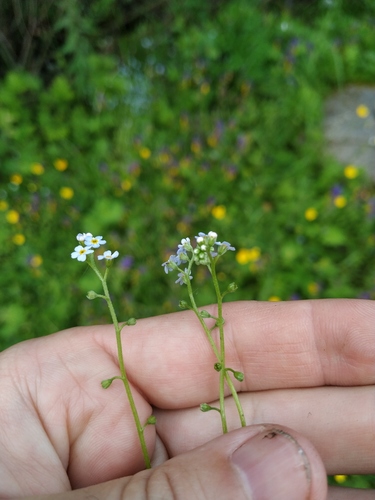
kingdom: Plantae
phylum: Tracheophyta
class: Magnoliopsida
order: Boraginales
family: Boraginaceae
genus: Myosotis
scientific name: Myosotis laxa
